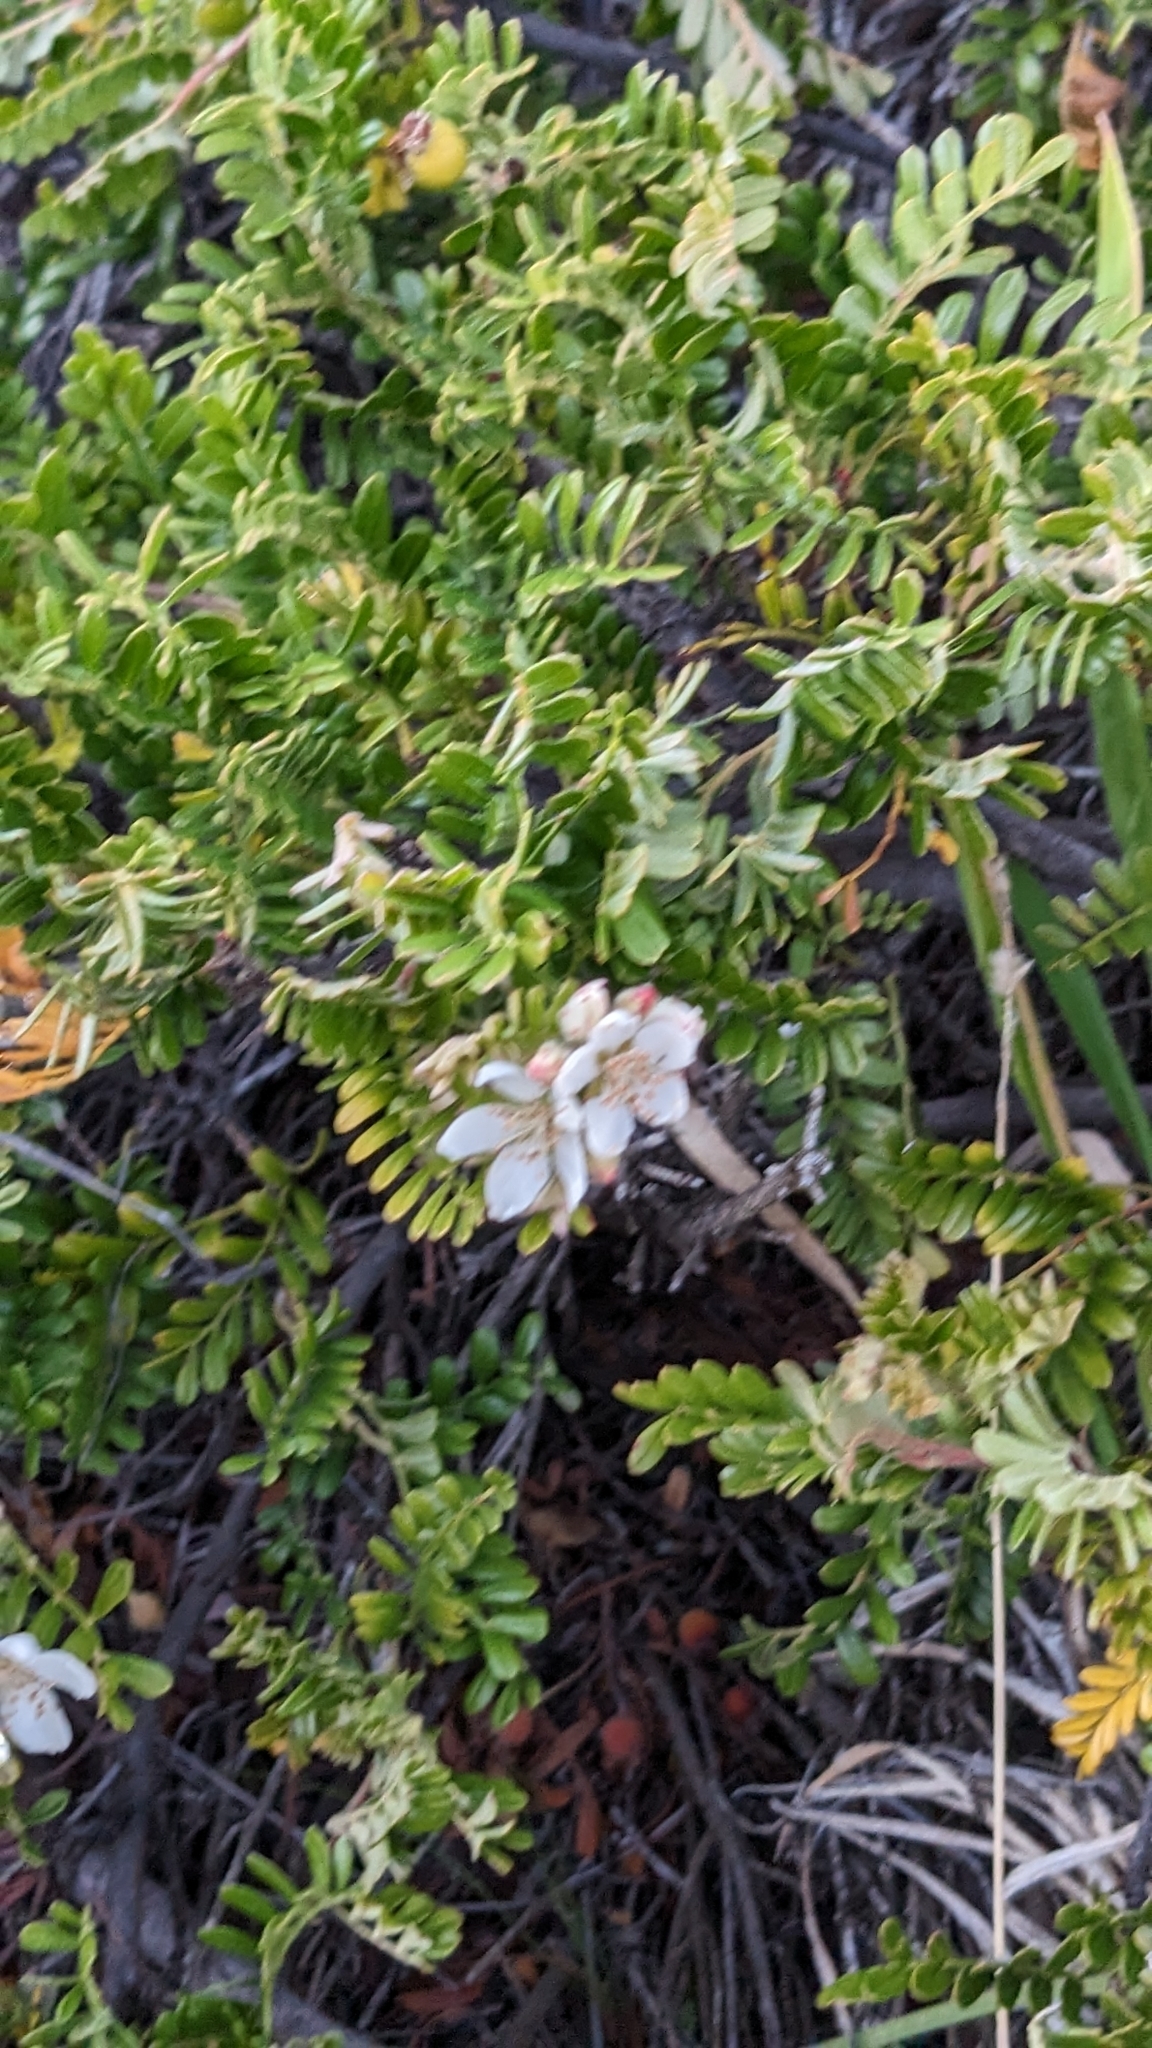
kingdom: Plantae
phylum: Tracheophyta
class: Magnoliopsida
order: Rosales
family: Rosaceae
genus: Osteomeles
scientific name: Osteomeles anthyllidifolia
